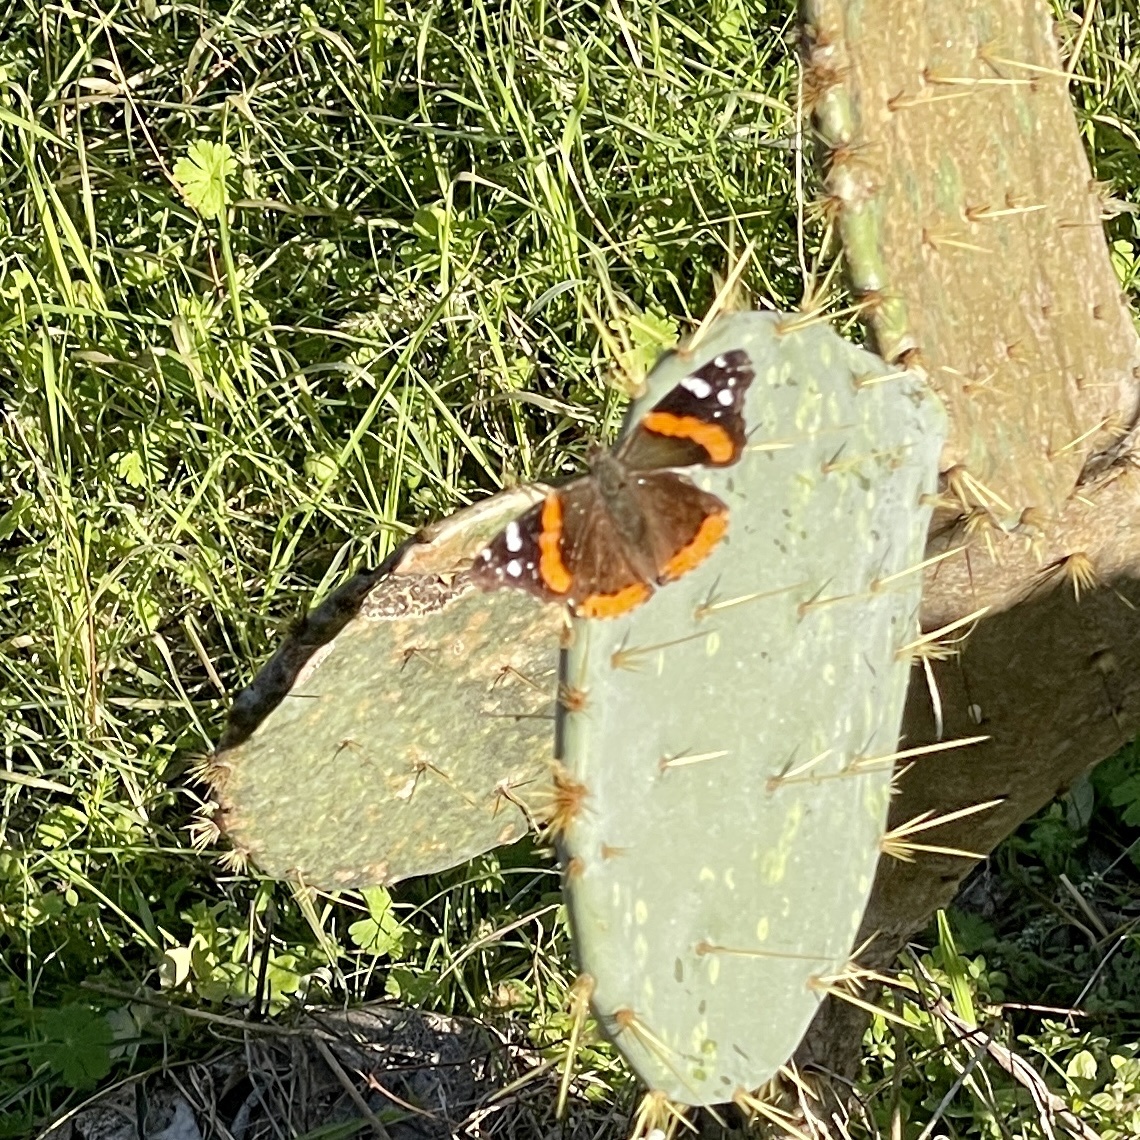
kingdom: Animalia
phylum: Arthropoda
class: Insecta
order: Lepidoptera
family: Nymphalidae
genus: Vanessa
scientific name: Vanessa atalanta
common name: Red admiral
